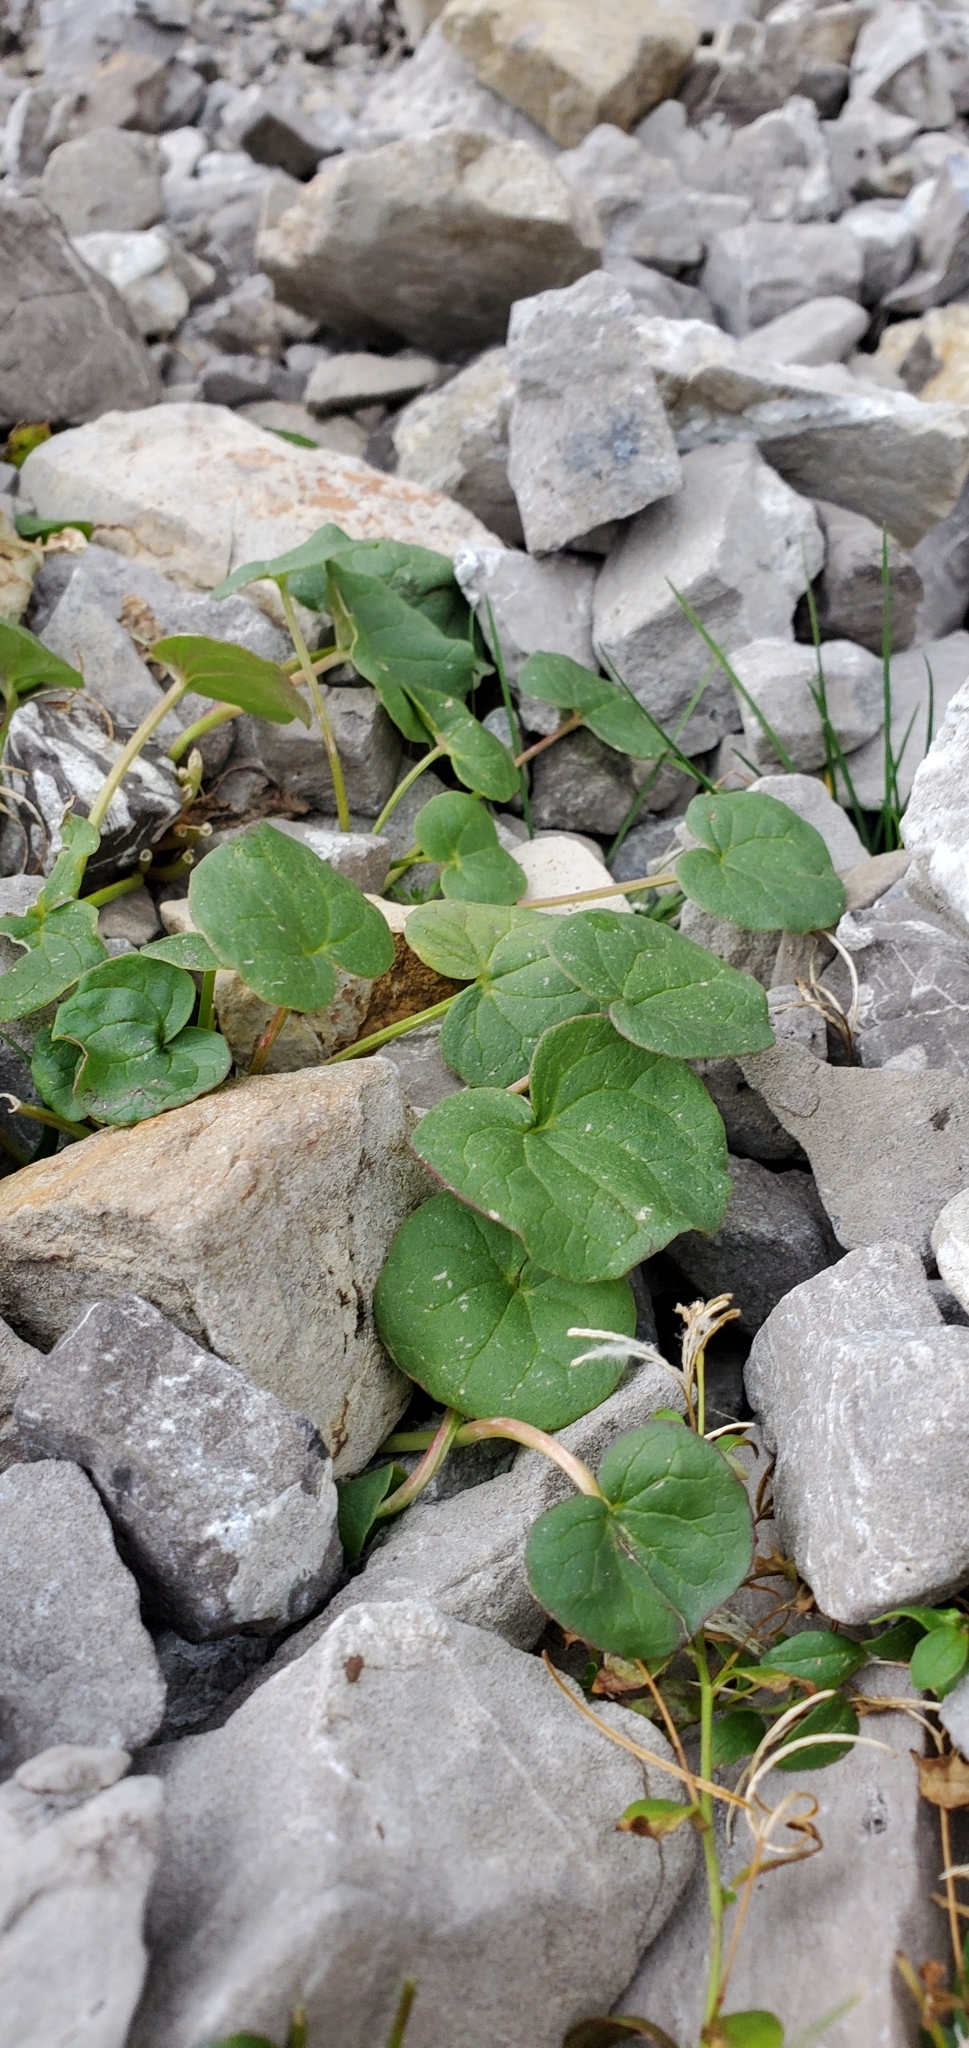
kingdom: Plantae
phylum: Tracheophyta
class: Magnoliopsida
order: Caryophyllales
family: Polygonaceae
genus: Oxyria
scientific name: Oxyria digyna
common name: Alpine mountain-sorrel
